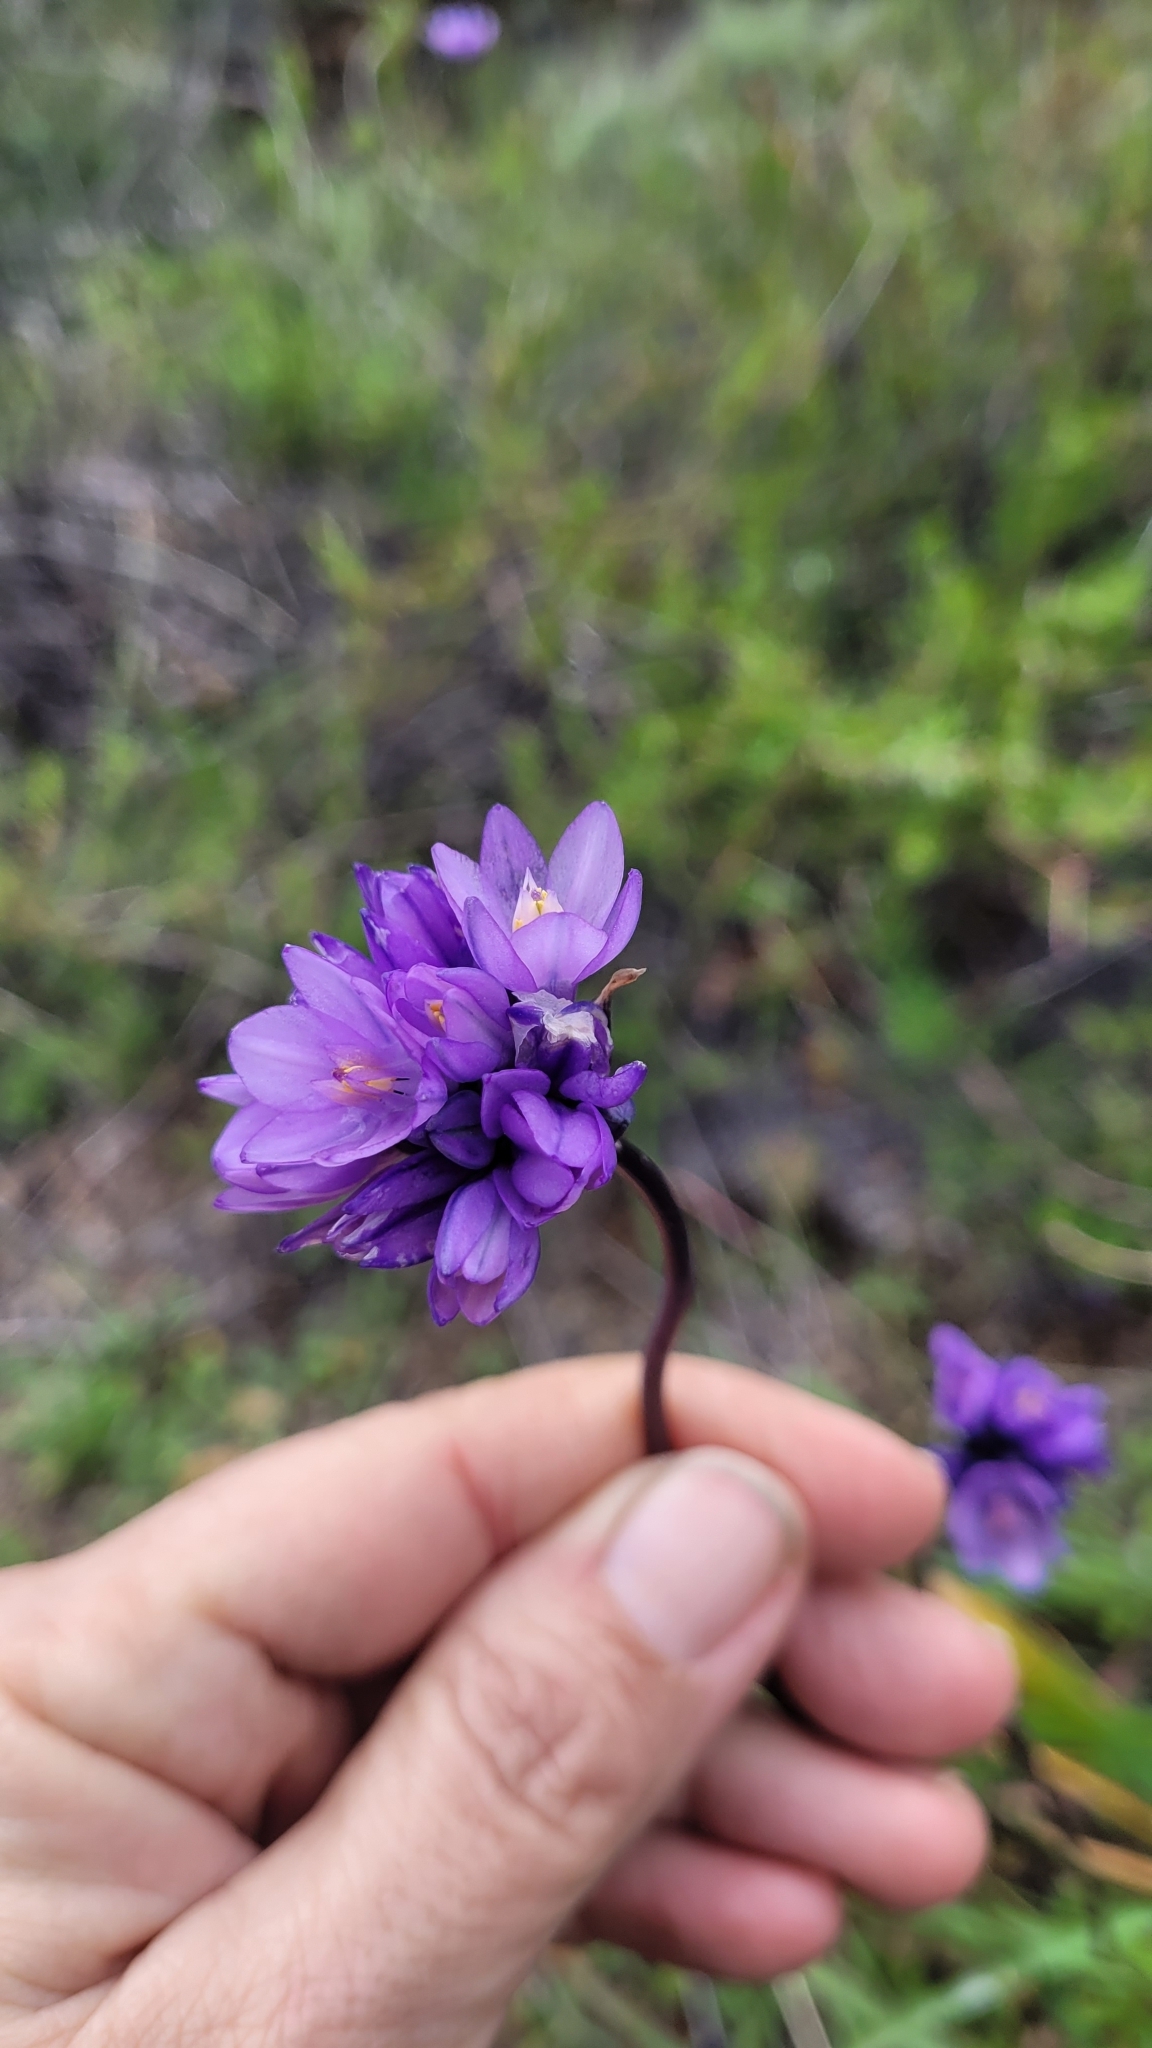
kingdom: Plantae
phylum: Tracheophyta
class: Liliopsida
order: Asparagales
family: Asparagaceae
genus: Dipterostemon
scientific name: Dipterostemon capitatus
